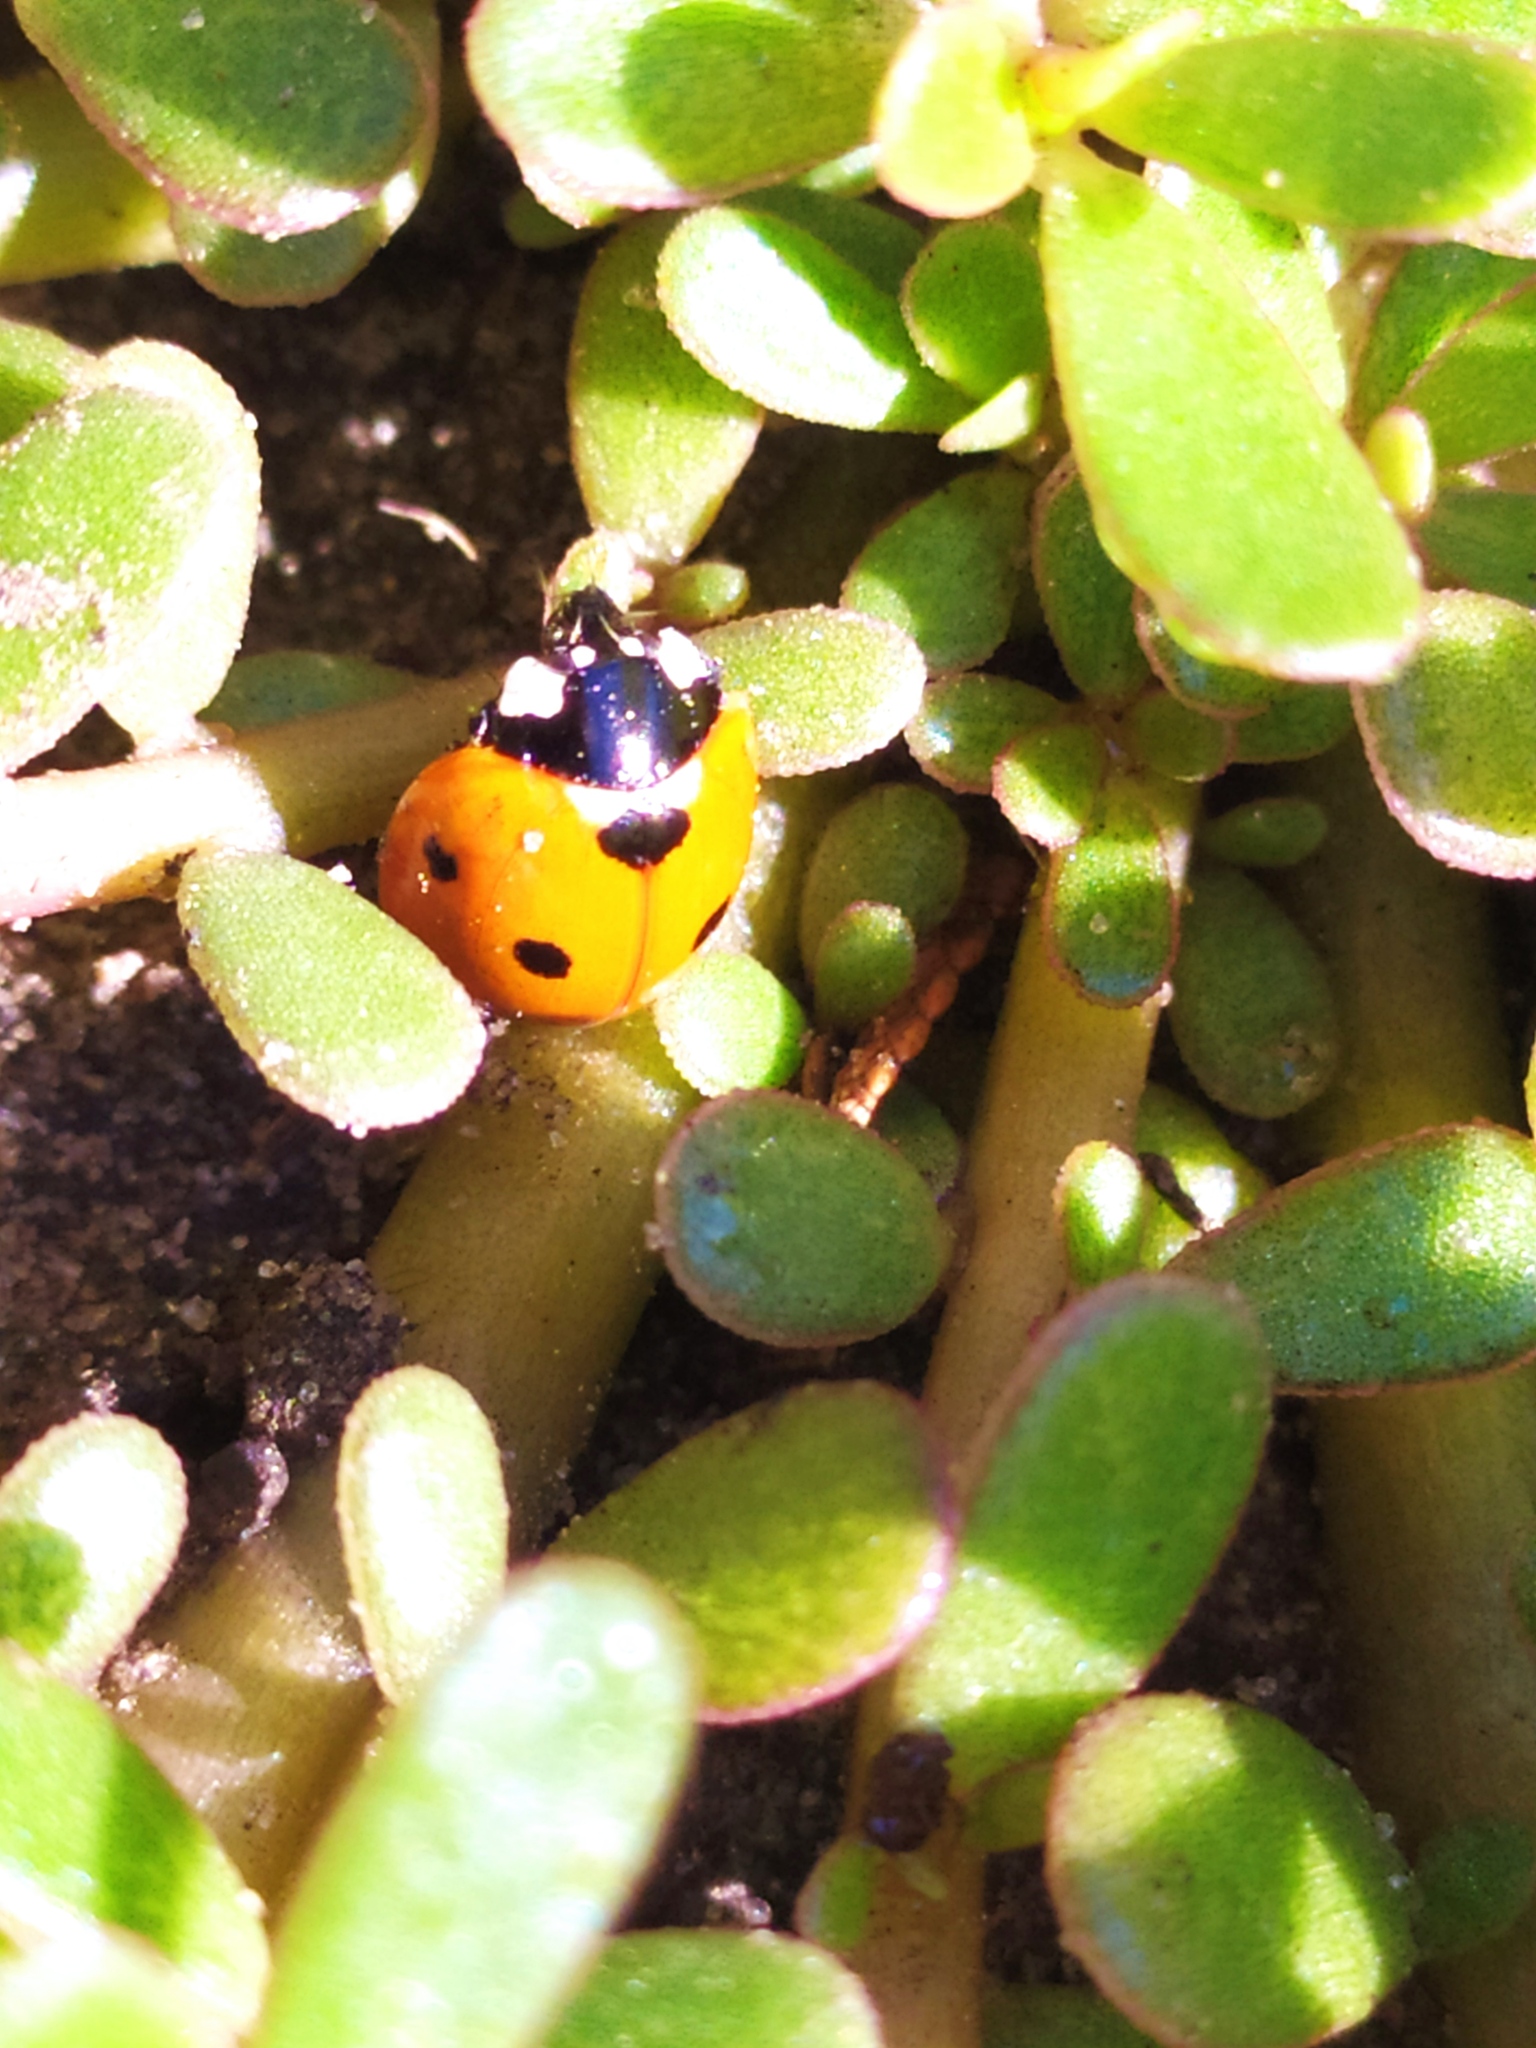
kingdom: Animalia
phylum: Arthropoda
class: Insecta
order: Coleoptera
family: Coccinellidae
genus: Coccinella
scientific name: Coccinella septempunctata
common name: Sevenspotted lady beetle
